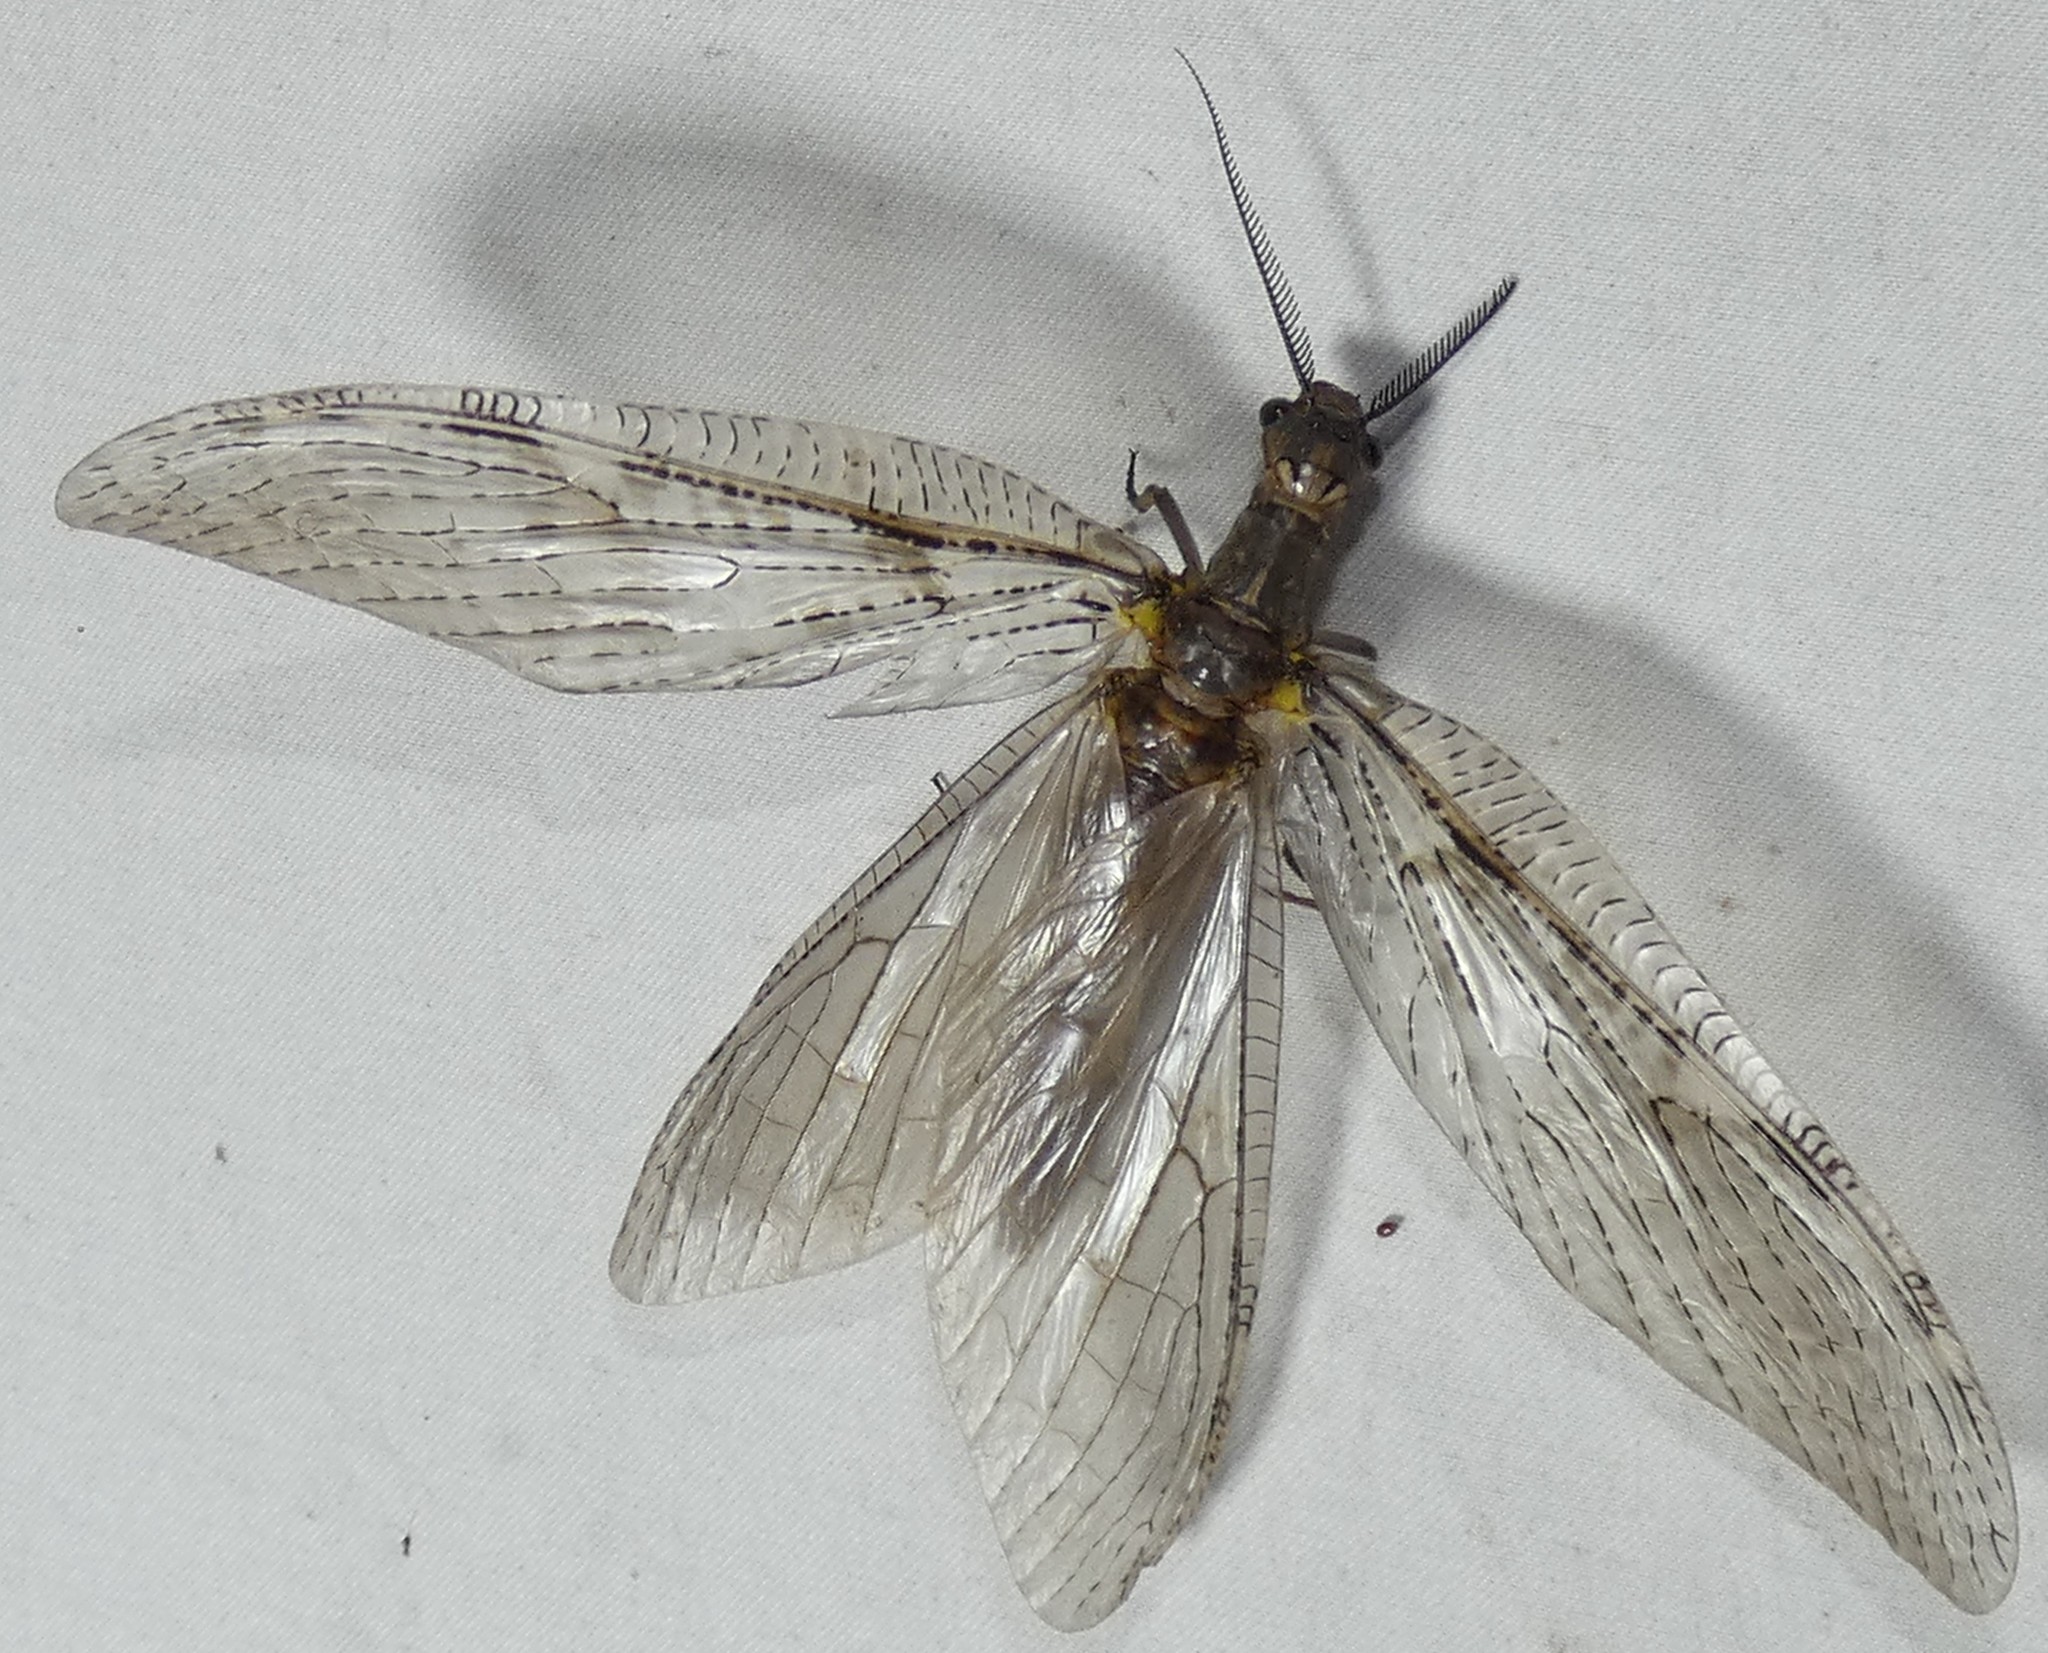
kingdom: Animalia
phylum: Arthropoda
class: Insecta
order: Megaloptera
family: Corydalidae
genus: Chauliodes
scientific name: Chauliodes pectinicornis
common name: Summer fishfly
